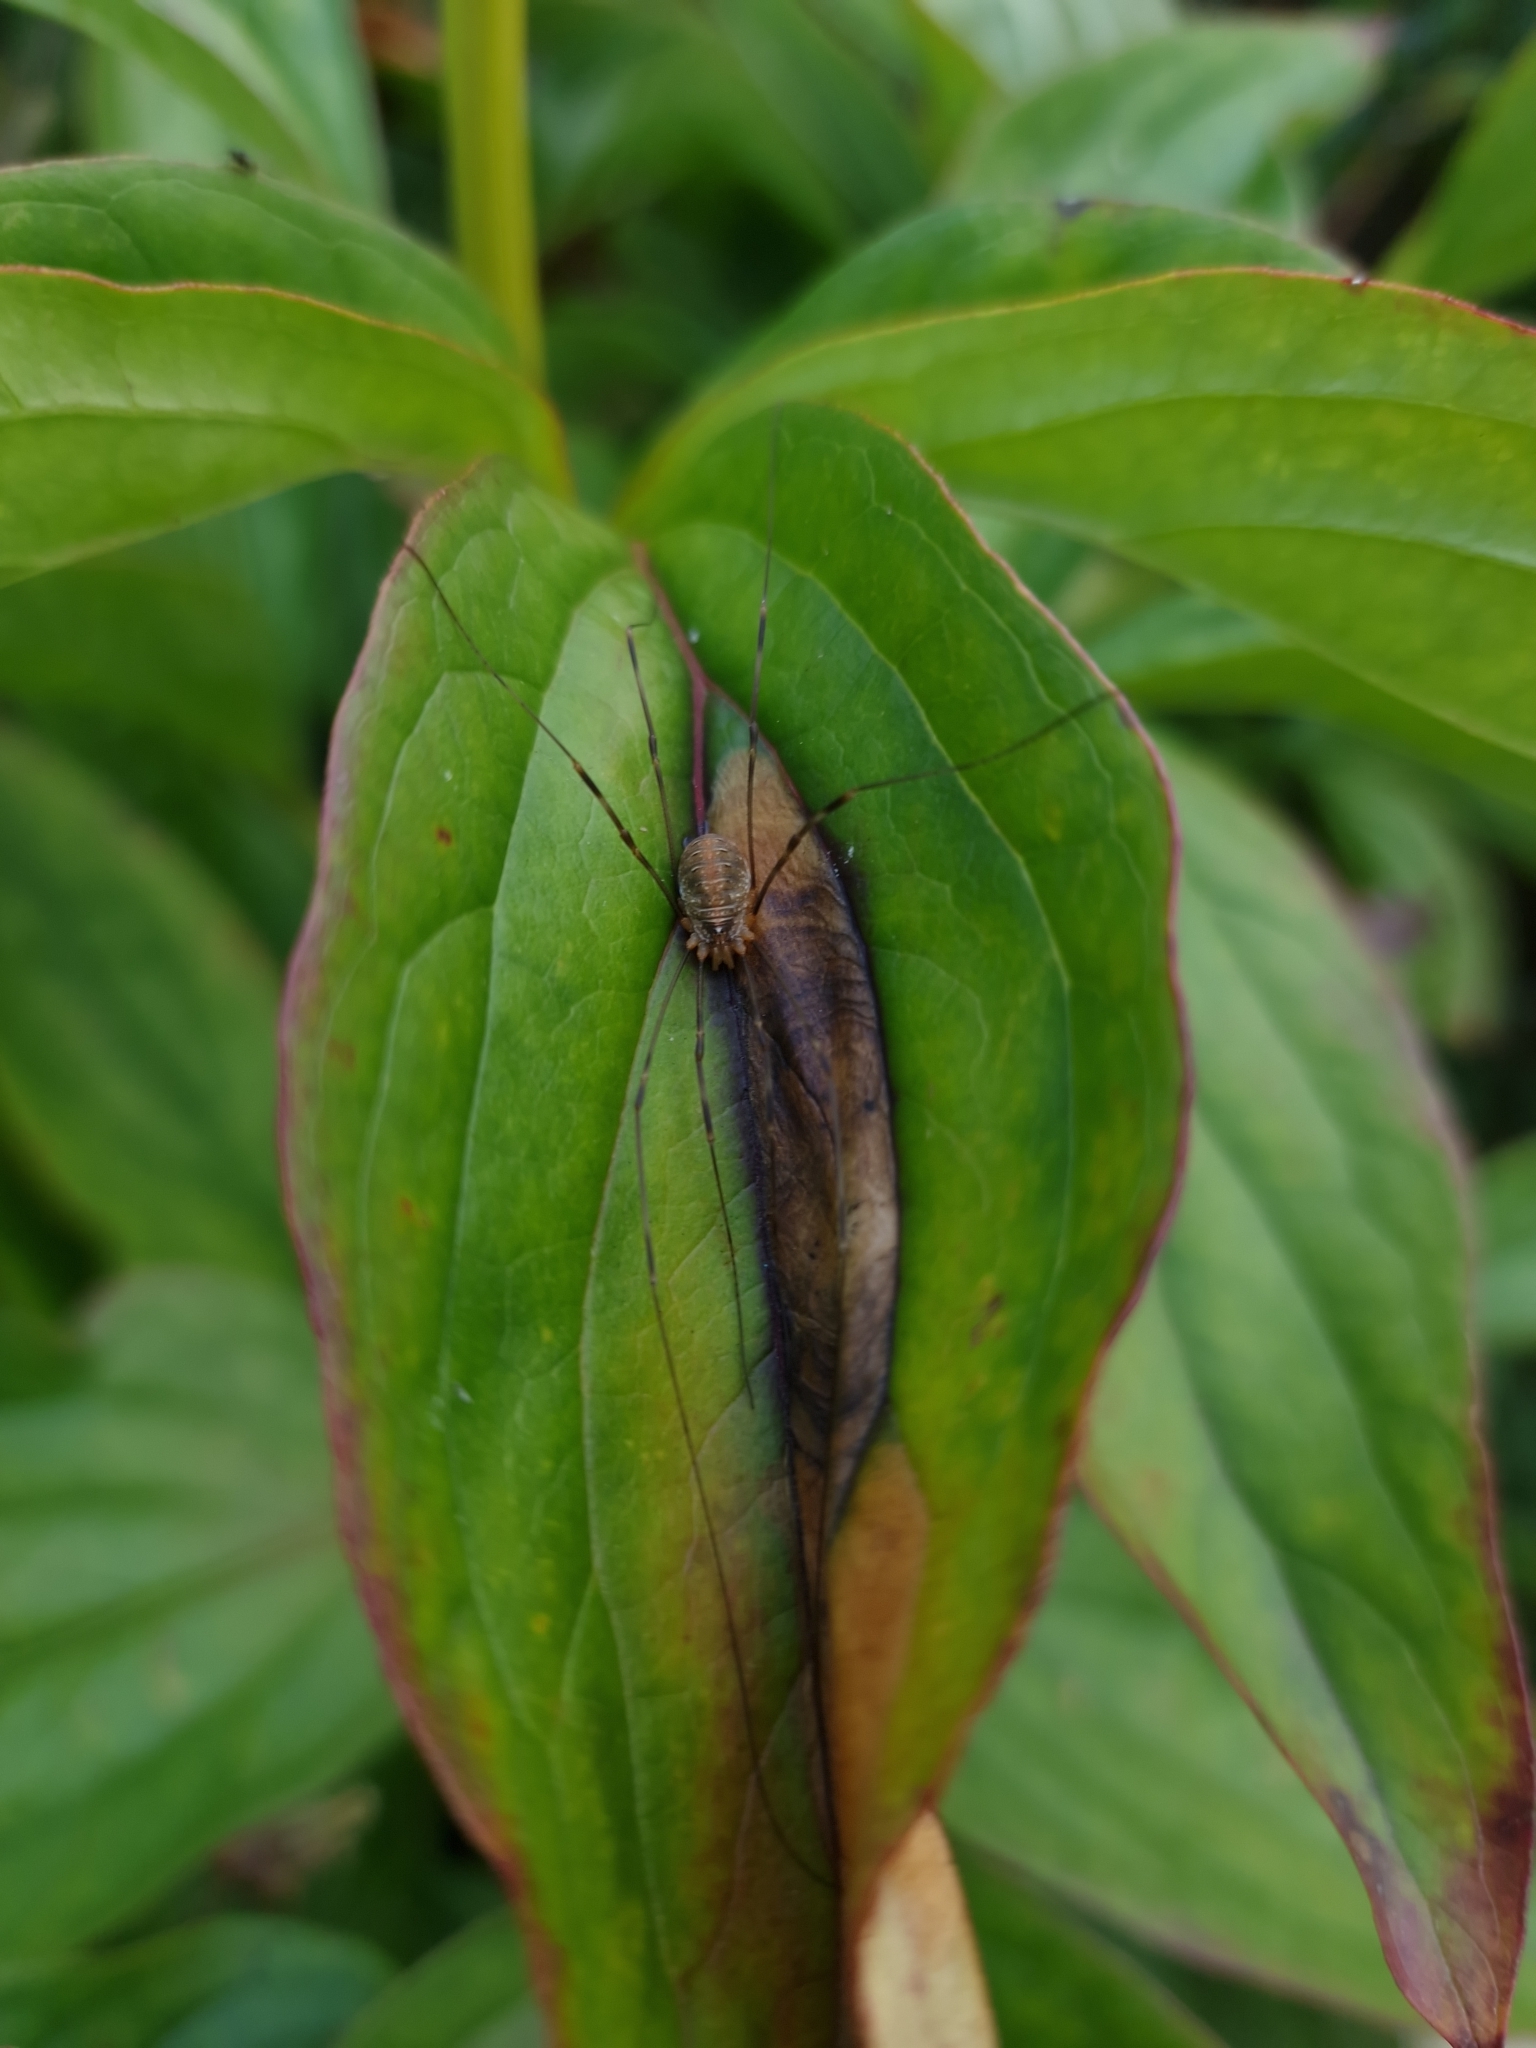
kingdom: Animalia
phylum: Arthropoda
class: Arachnida
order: Opiliones
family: Phalangiidae
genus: Opilio
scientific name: Opilio canestrinii
